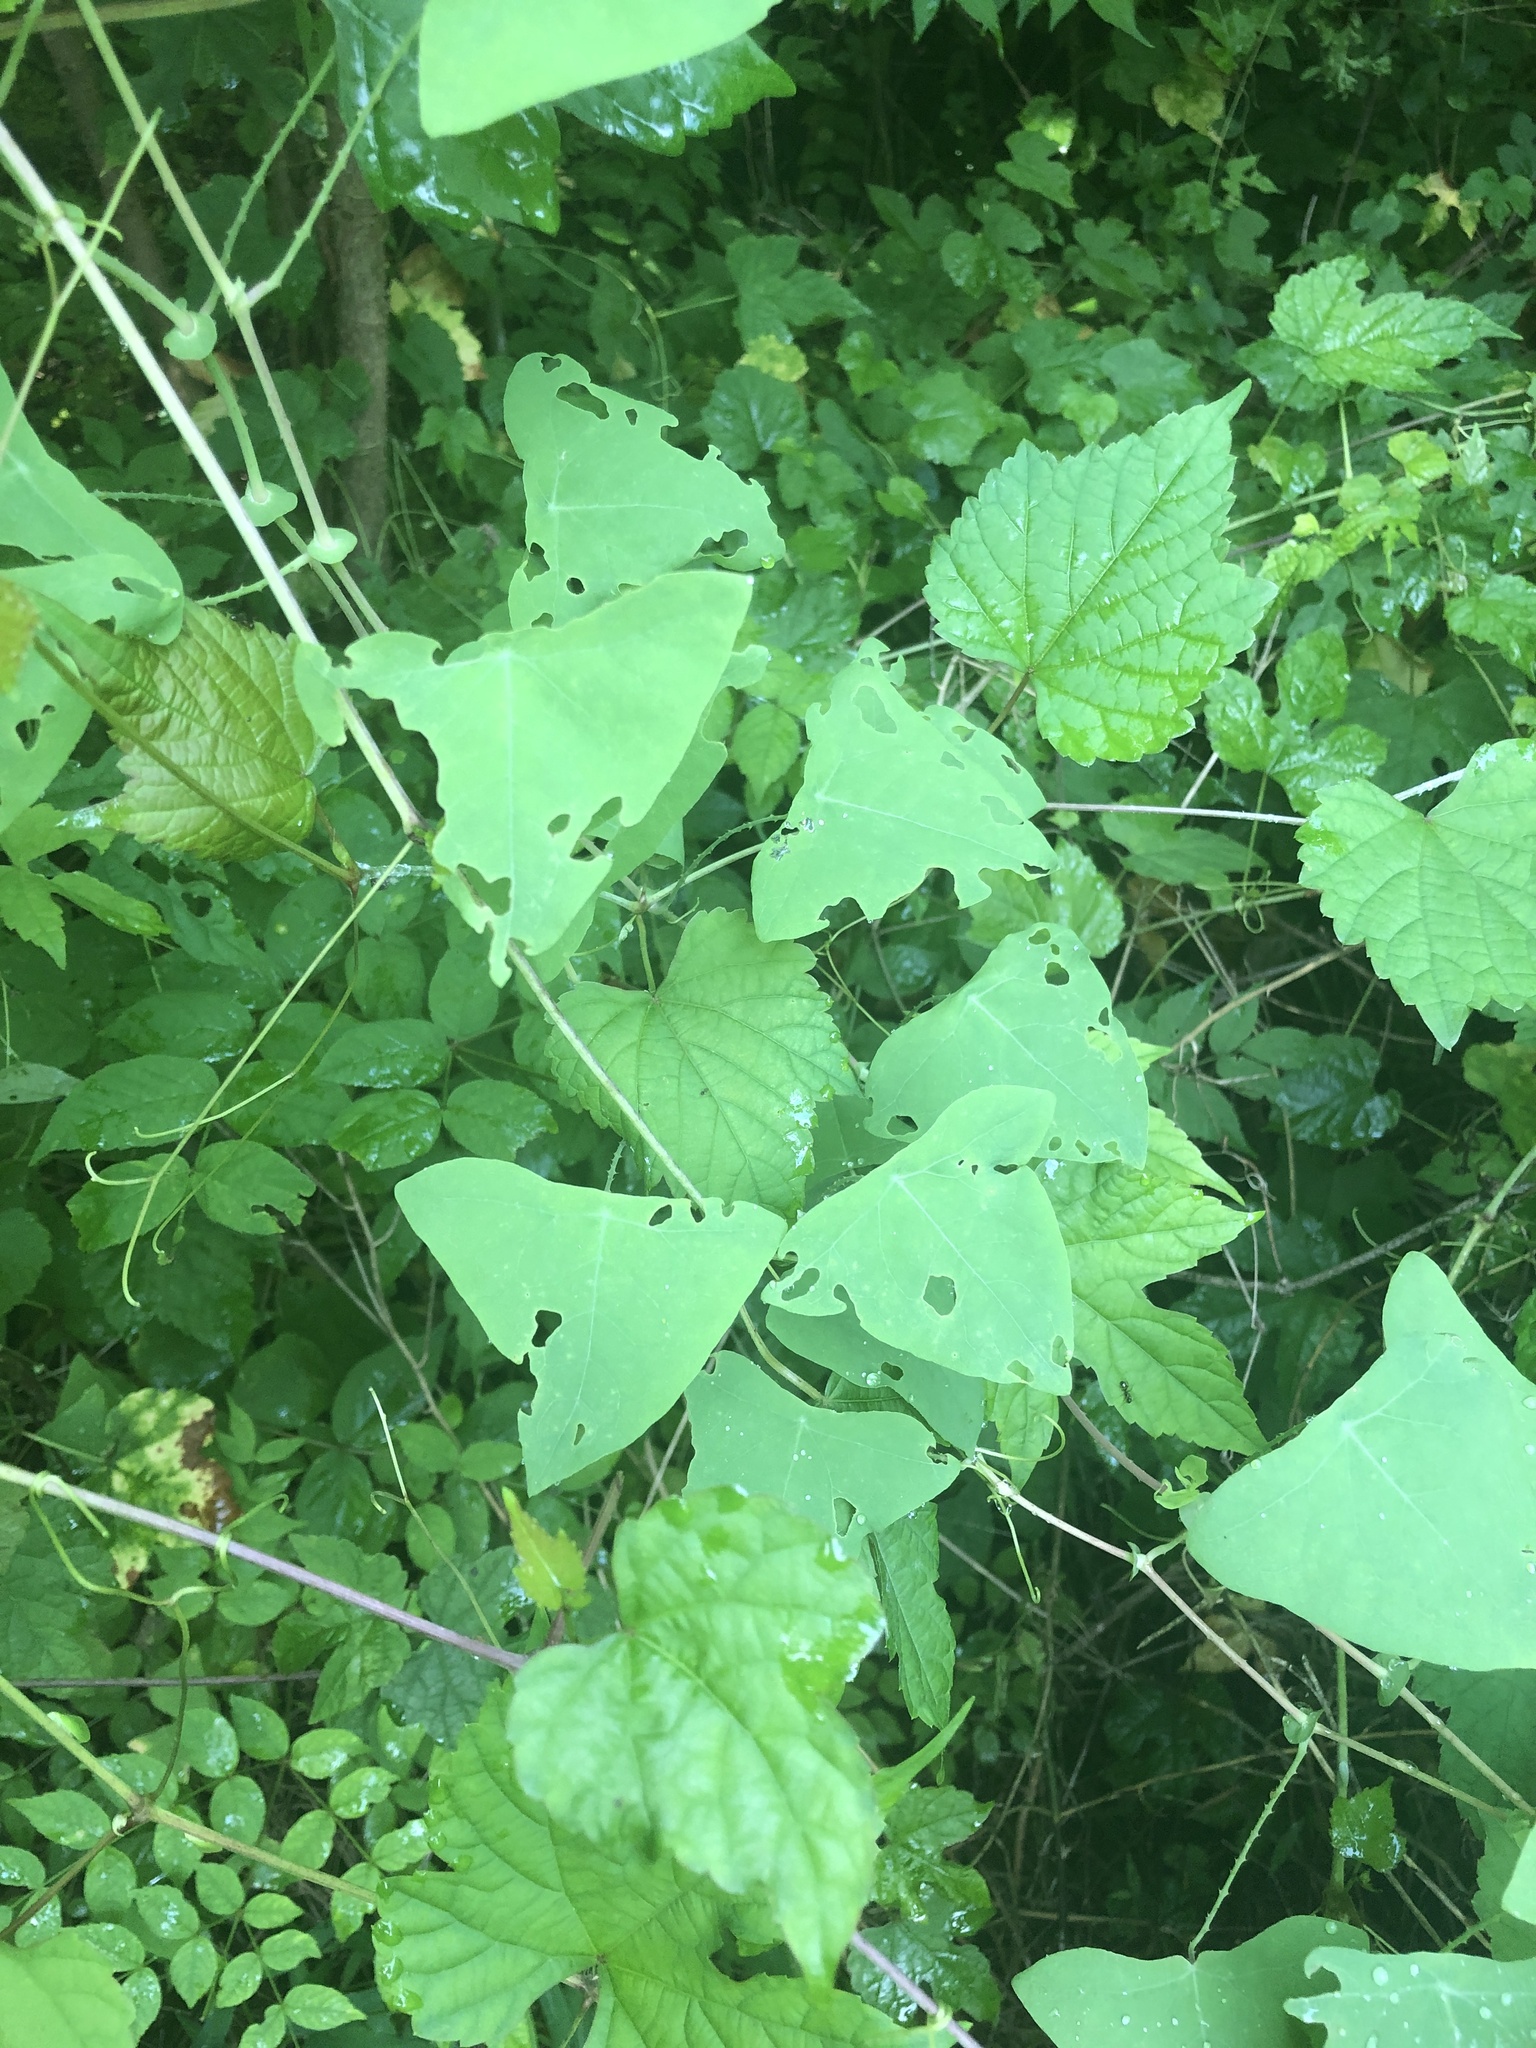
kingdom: Plantae
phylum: Tracheophyta
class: Magnoliopsida
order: Caryophyllales
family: Polygonaceae
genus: Persicaria
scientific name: Persicaria perfoliata
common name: Asiatic tearthumb
